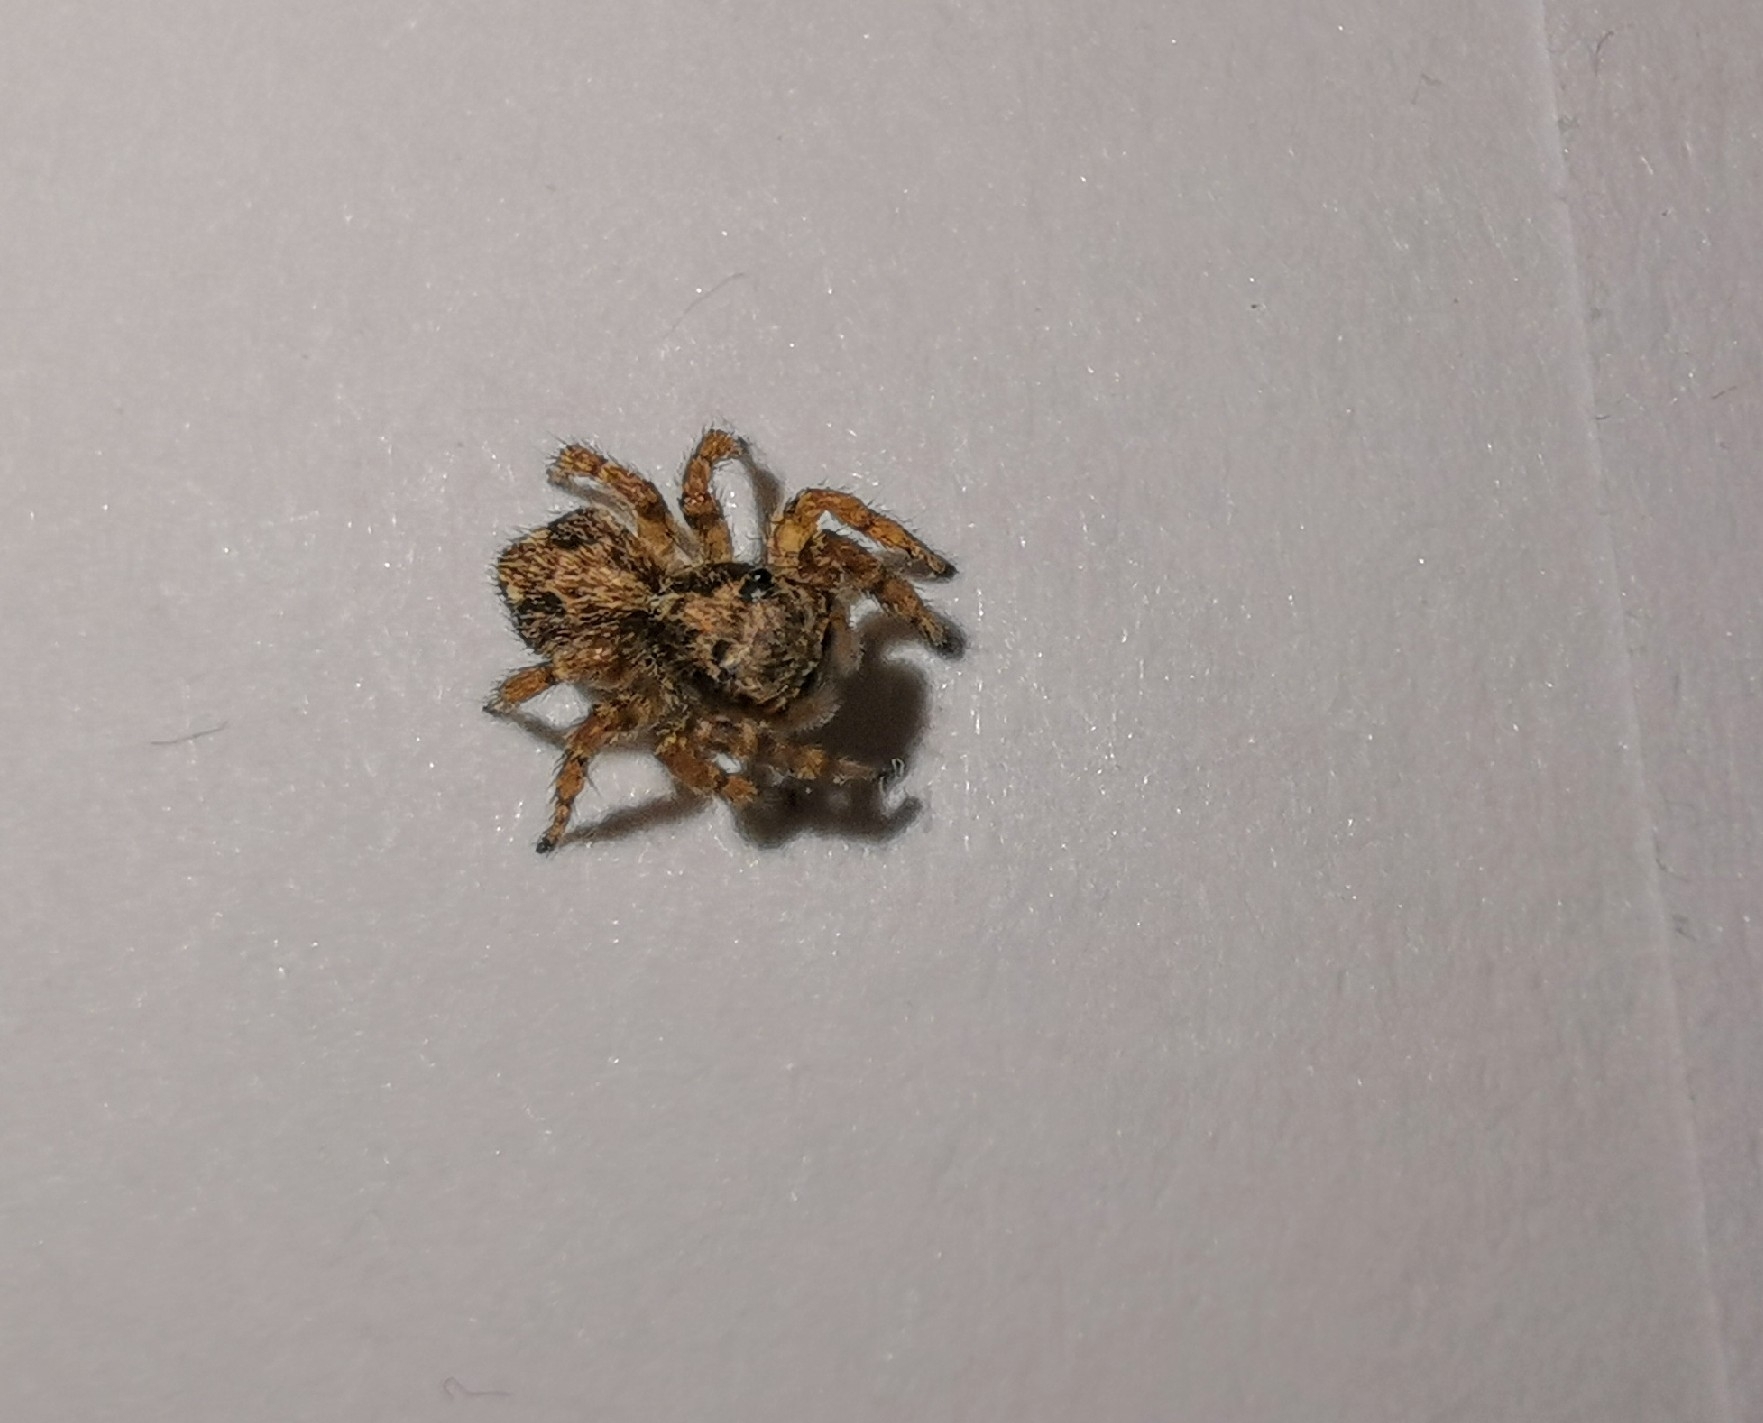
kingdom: Animalia
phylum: Arthropoda
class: Arachnida
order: Araneae
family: Salticidae
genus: Pseudeuophrys
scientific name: Pseudeuophrys lanigera
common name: Jumping spider
